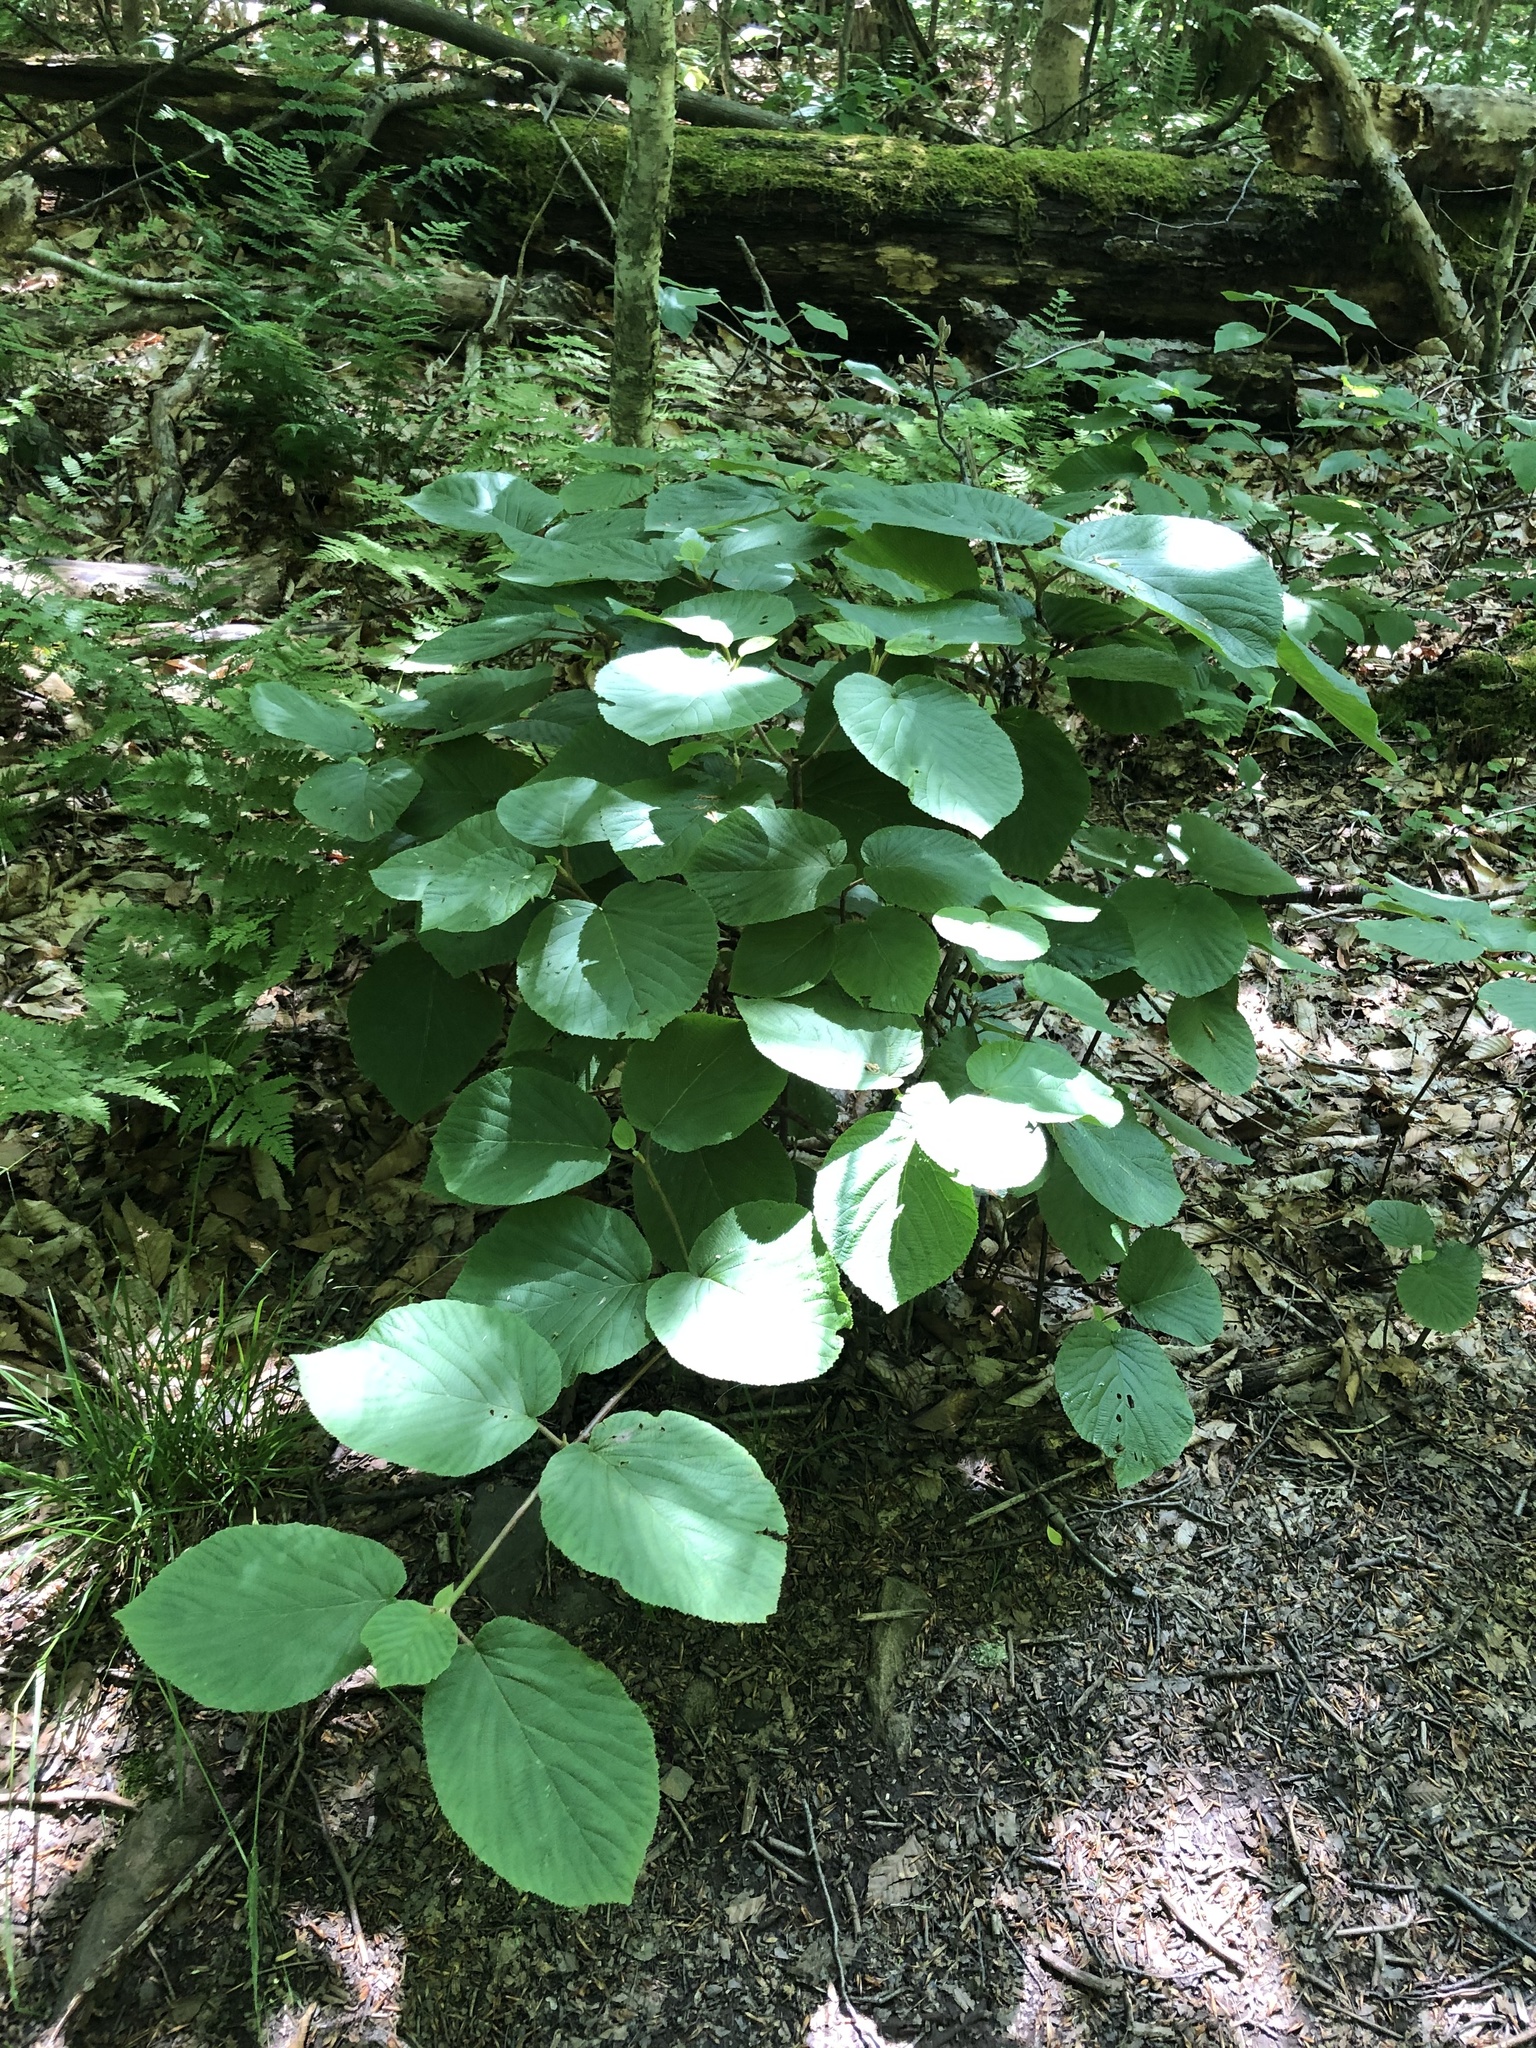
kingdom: Plantae
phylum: Tracheophyta
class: Magnoliopsida
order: Dipsacales
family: Viburnaceae
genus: Viburnum
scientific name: Viburnum lantanoides
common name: Hobblebush
